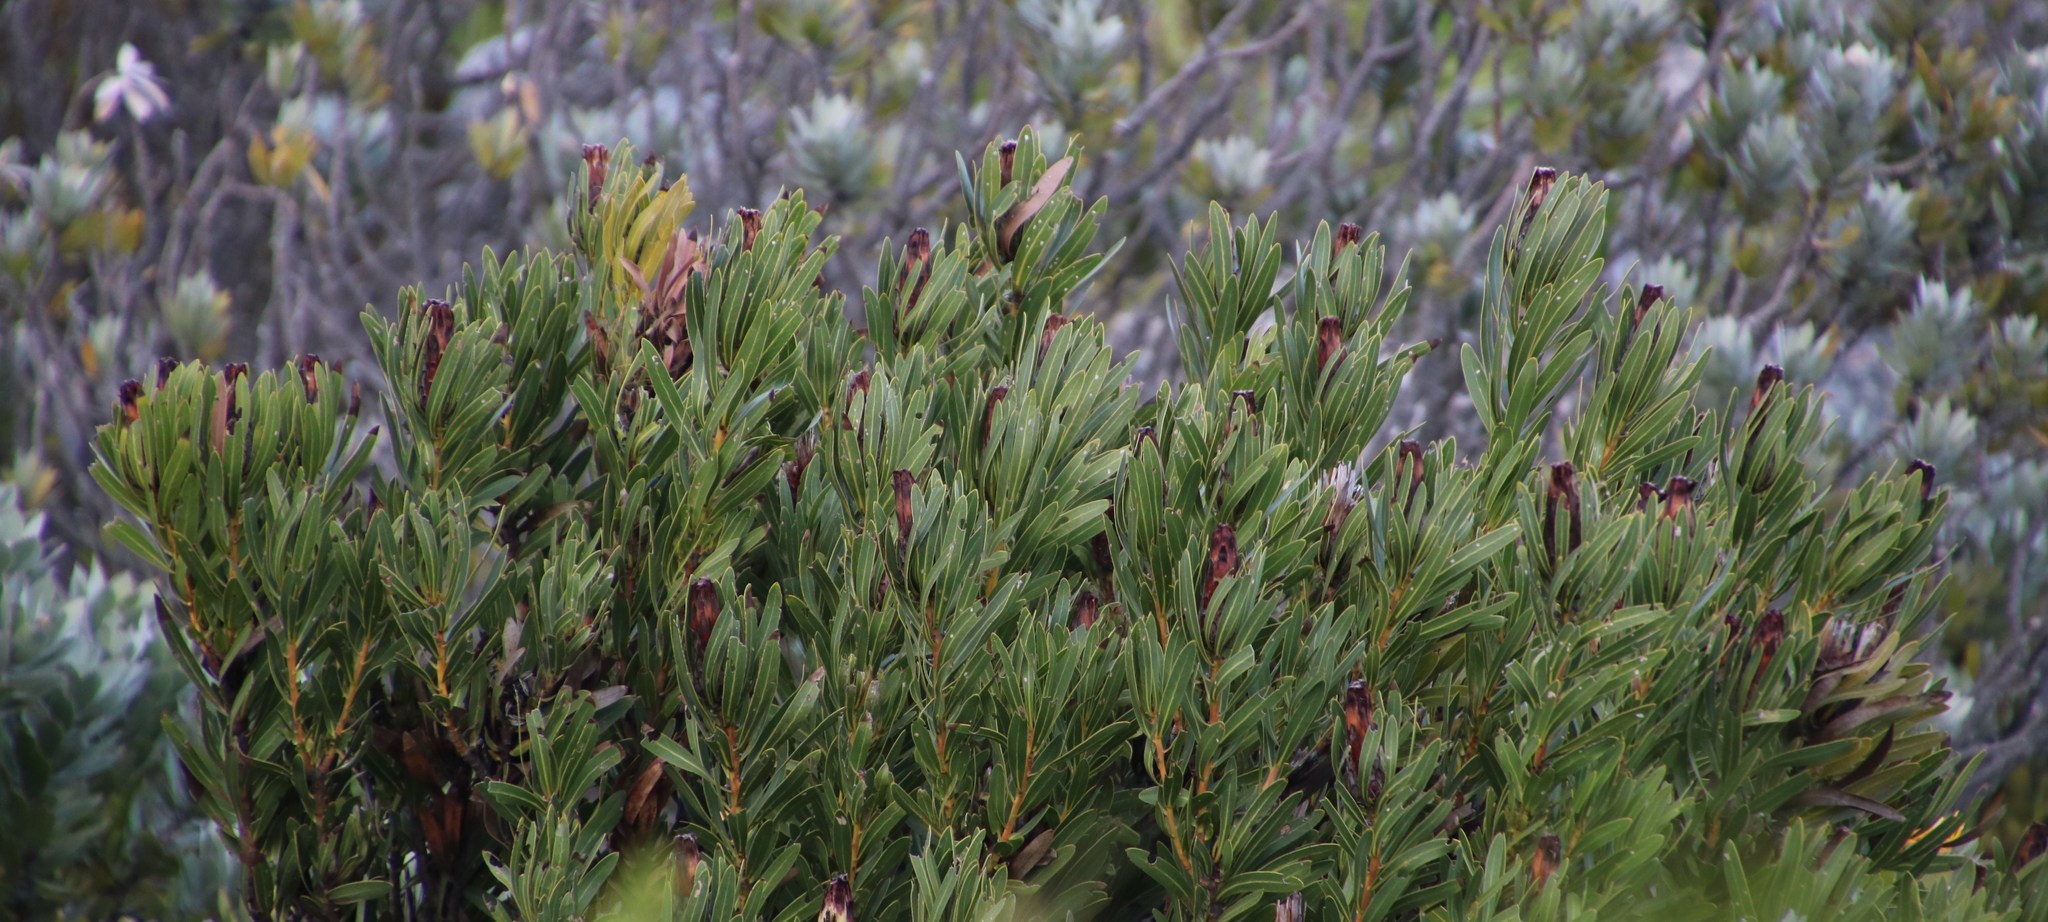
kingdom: Plantae
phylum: Tracheophyta
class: Magnoliopsida
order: Proteales
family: Proteaceae
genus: Protea
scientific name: Protea lepidocarpodendron
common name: Black-bearded protea
